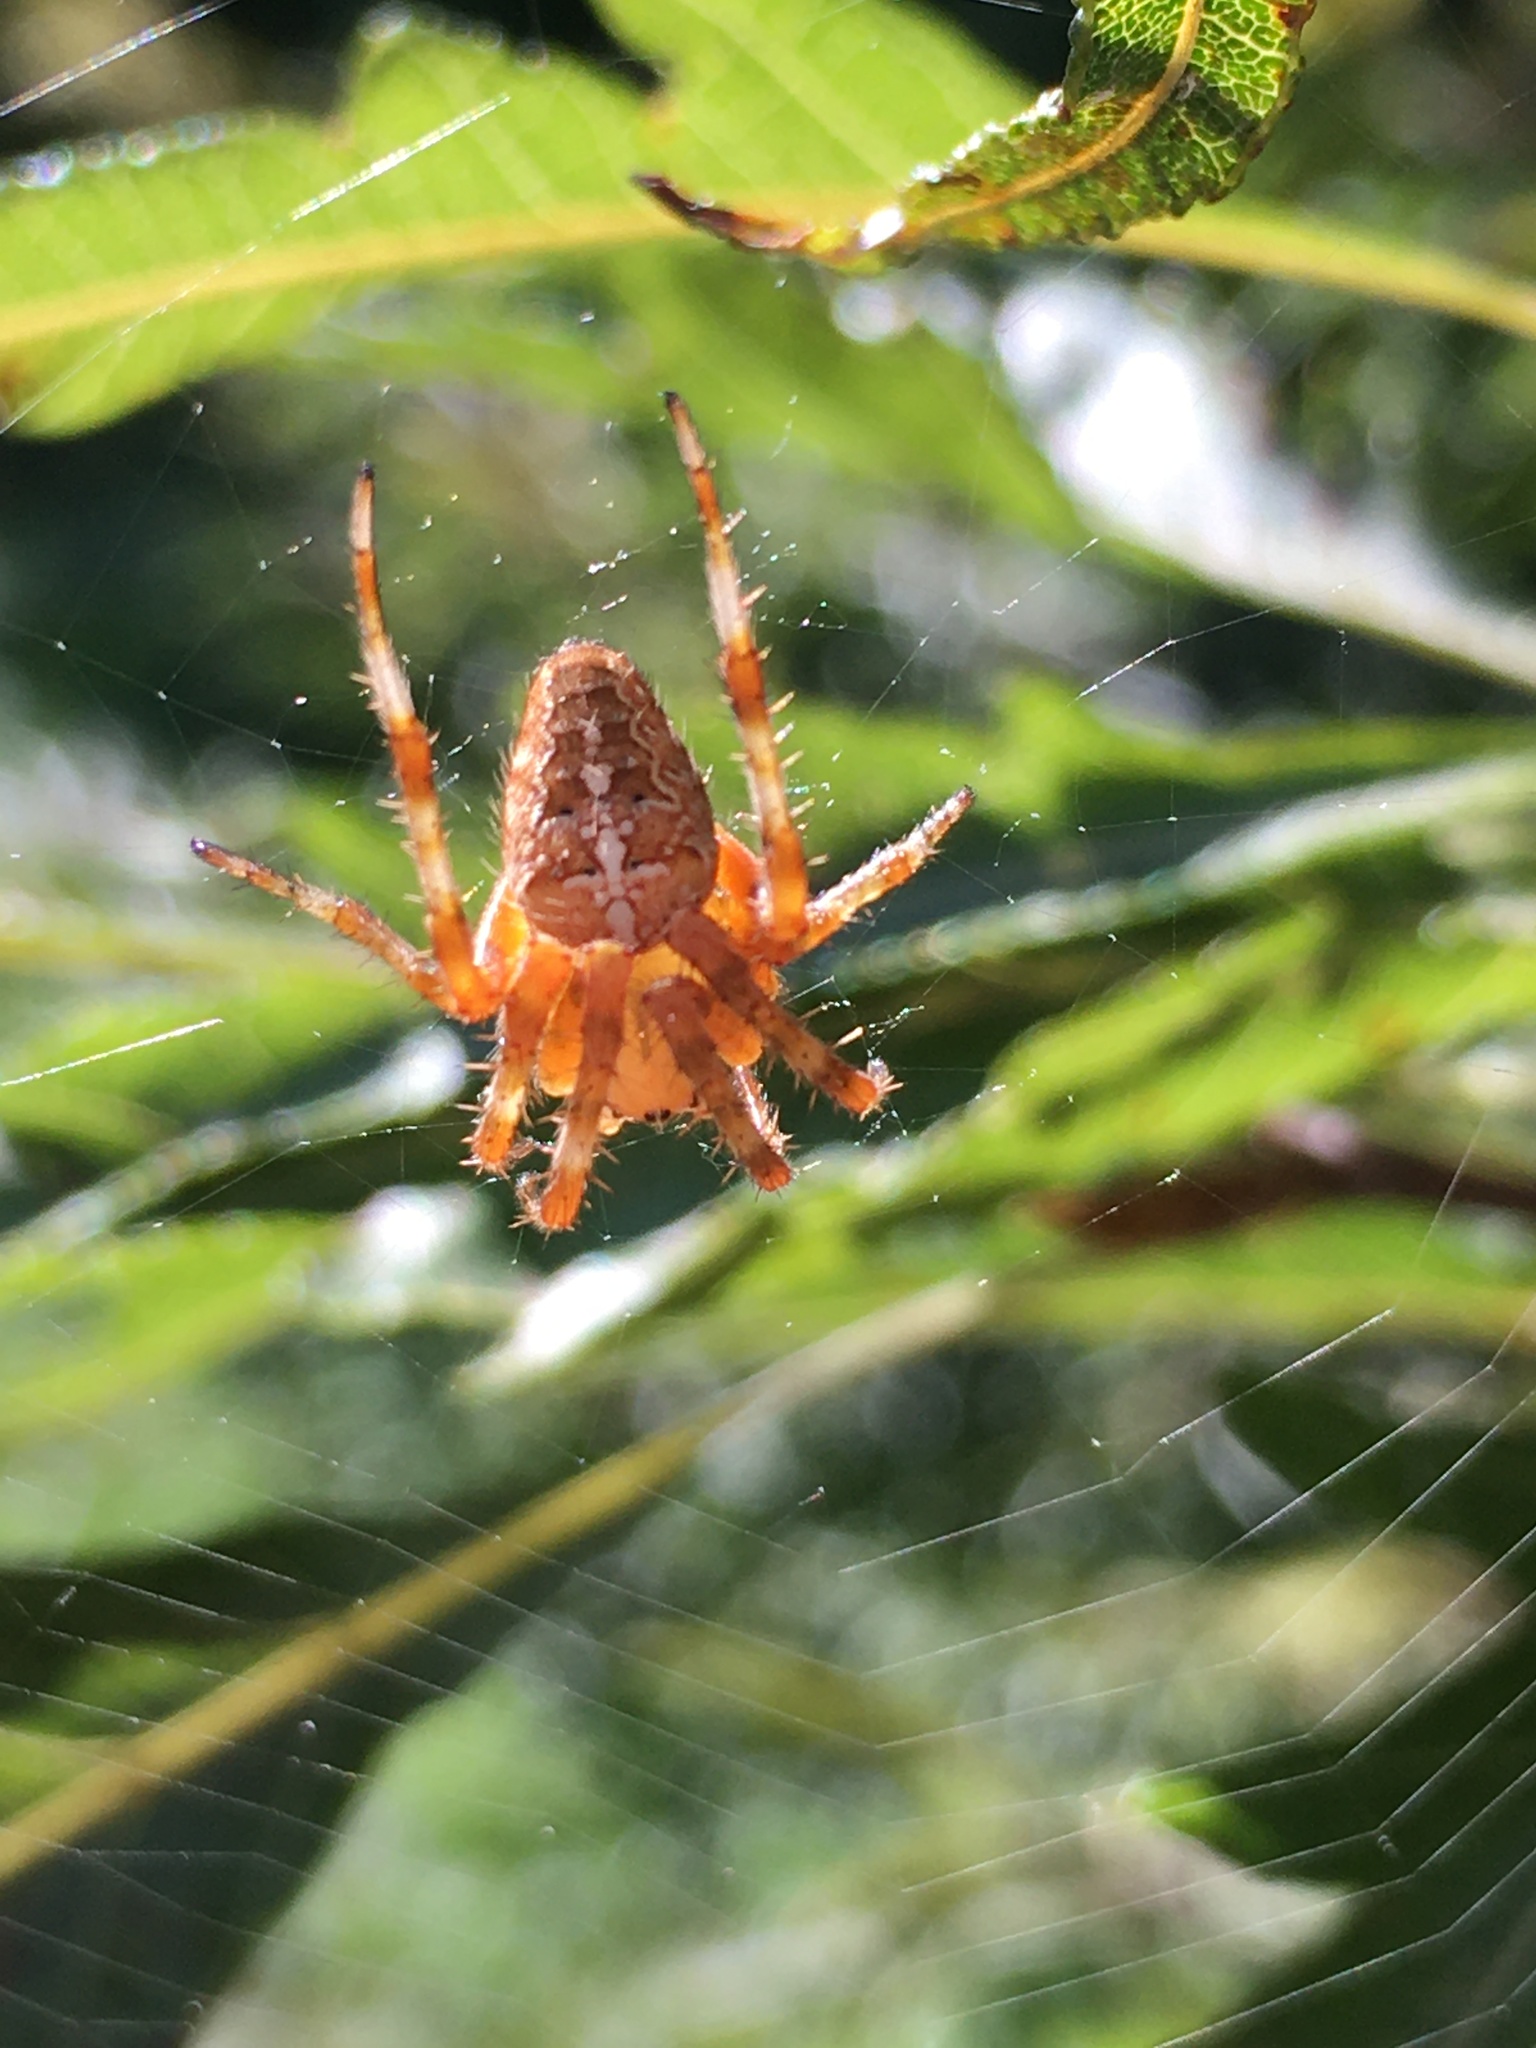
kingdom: Animalia
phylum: Arthropoda
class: Arachnida
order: Araneae
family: Araneidae
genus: Araneus
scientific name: Araneus diadematus
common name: Cross orbweaver
